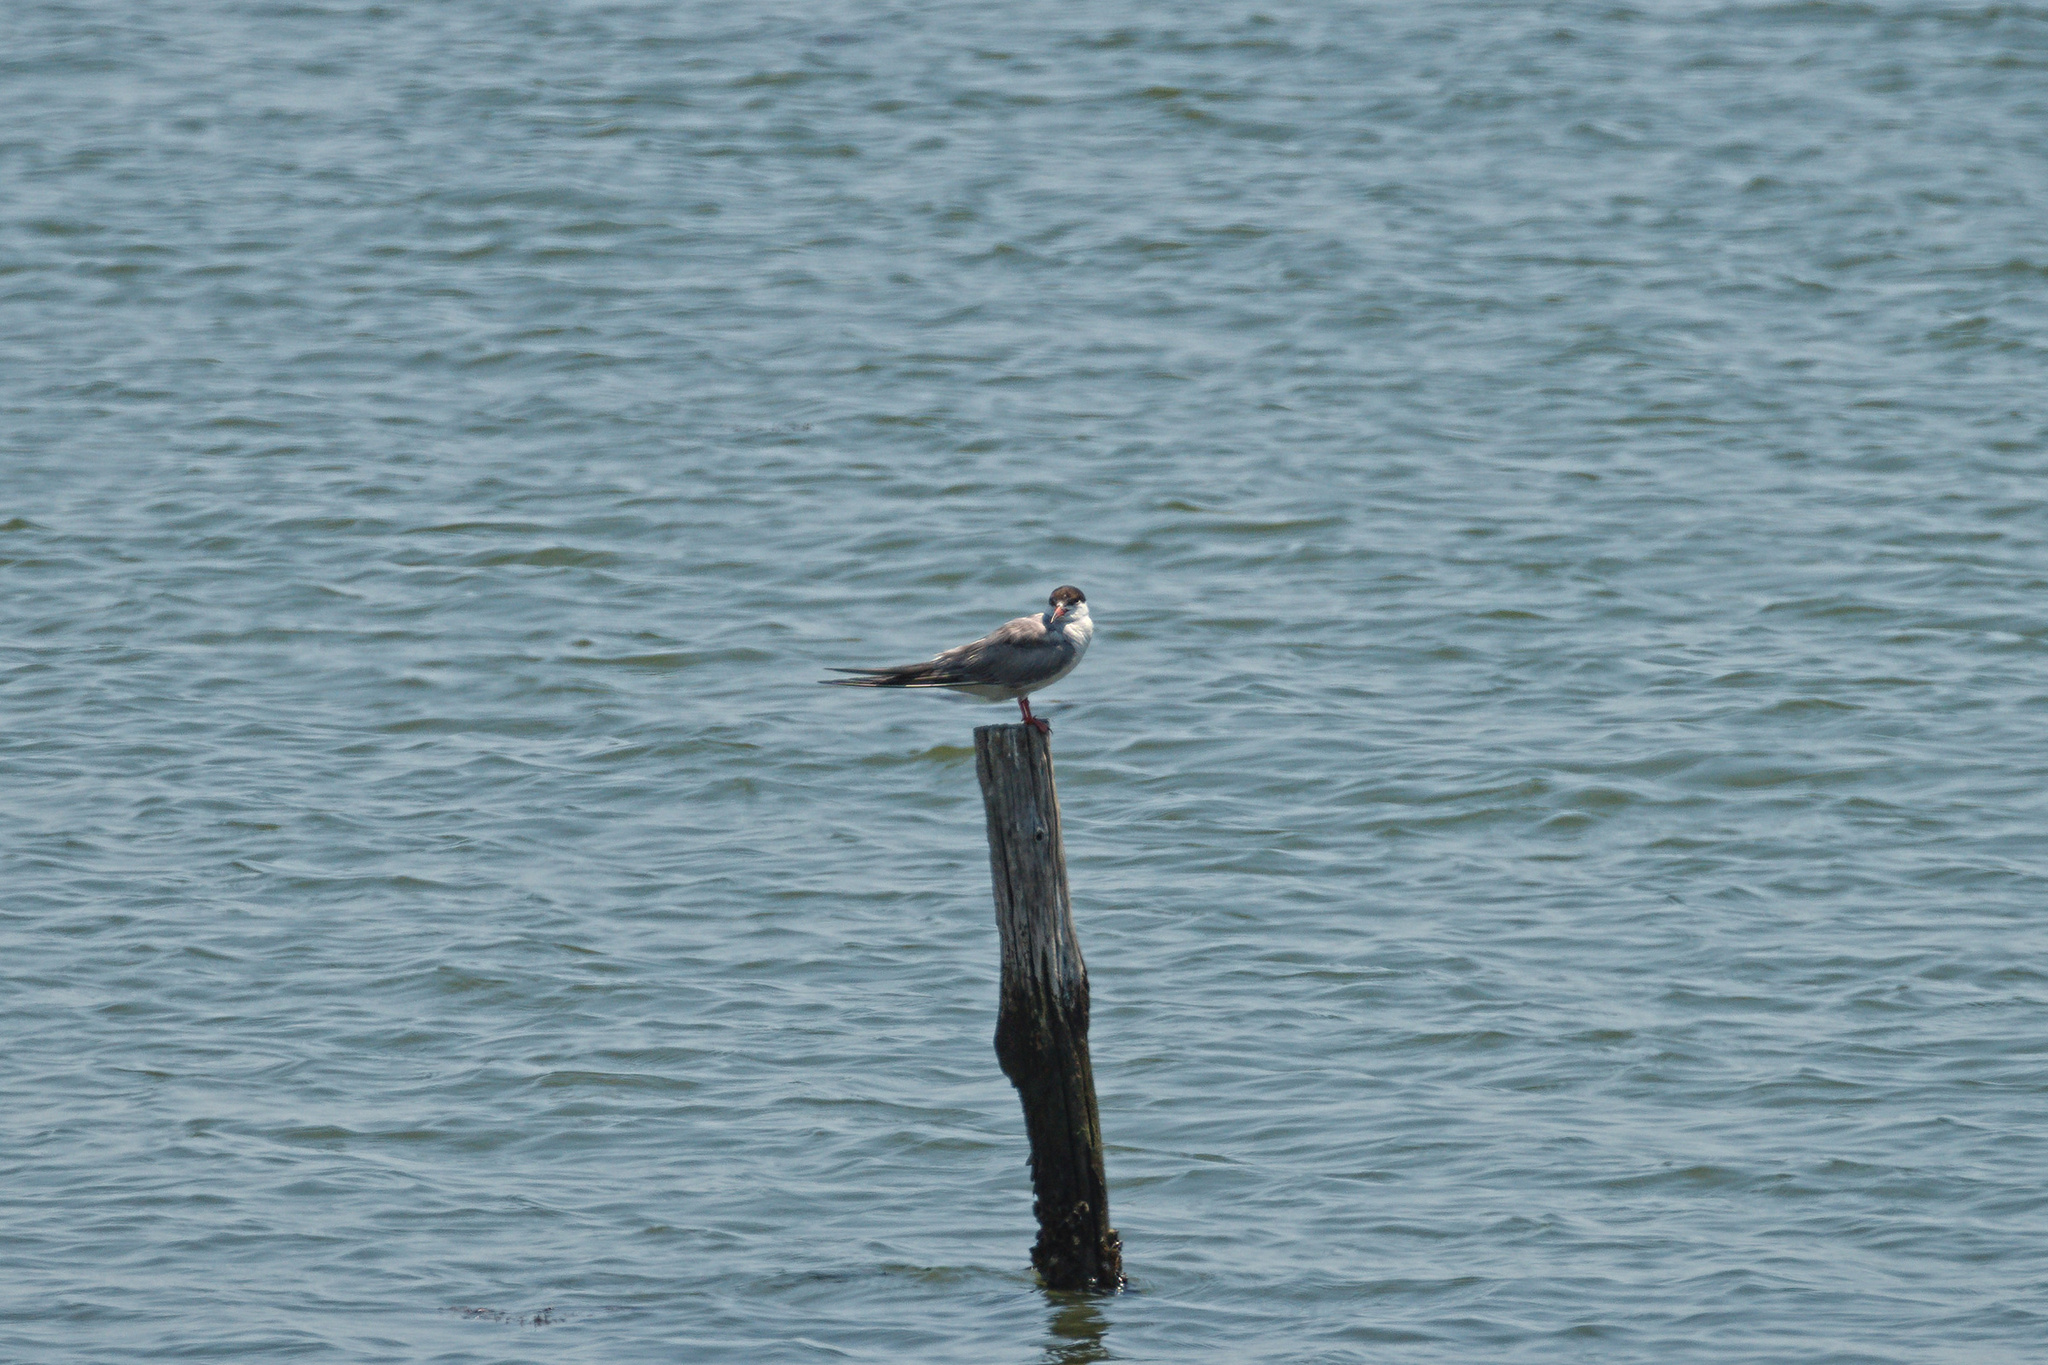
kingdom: Animalia
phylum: Chordata
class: Aves
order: Charadriiformes
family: Laridae
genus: Sterna
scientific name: Sterna hirundo
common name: Common tern
